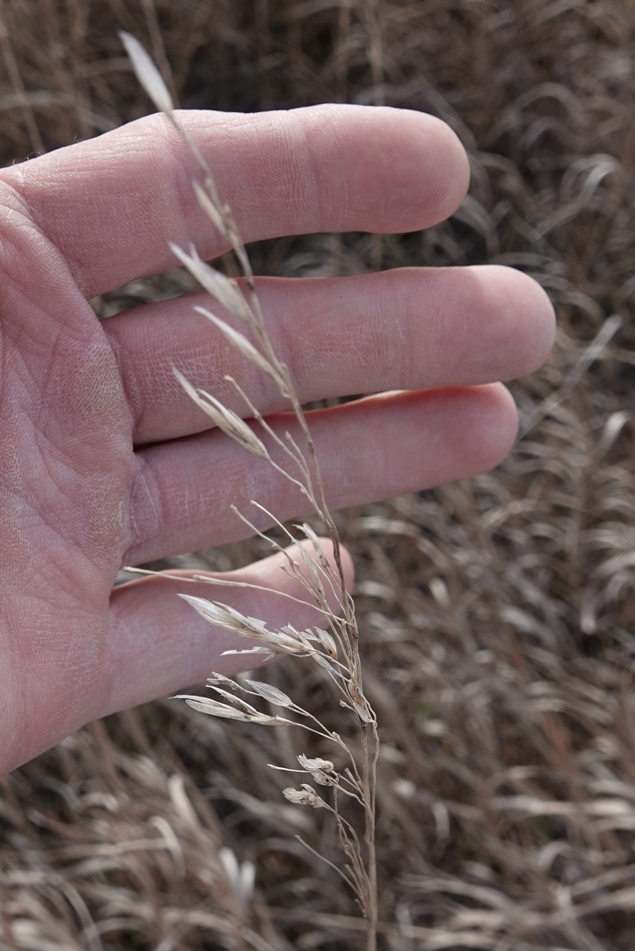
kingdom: Plantae
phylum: Tracheophyta
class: Liliopsida
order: Poales
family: Poaceae
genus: Bromus
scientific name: Bromus inermis
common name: Smooth brome
